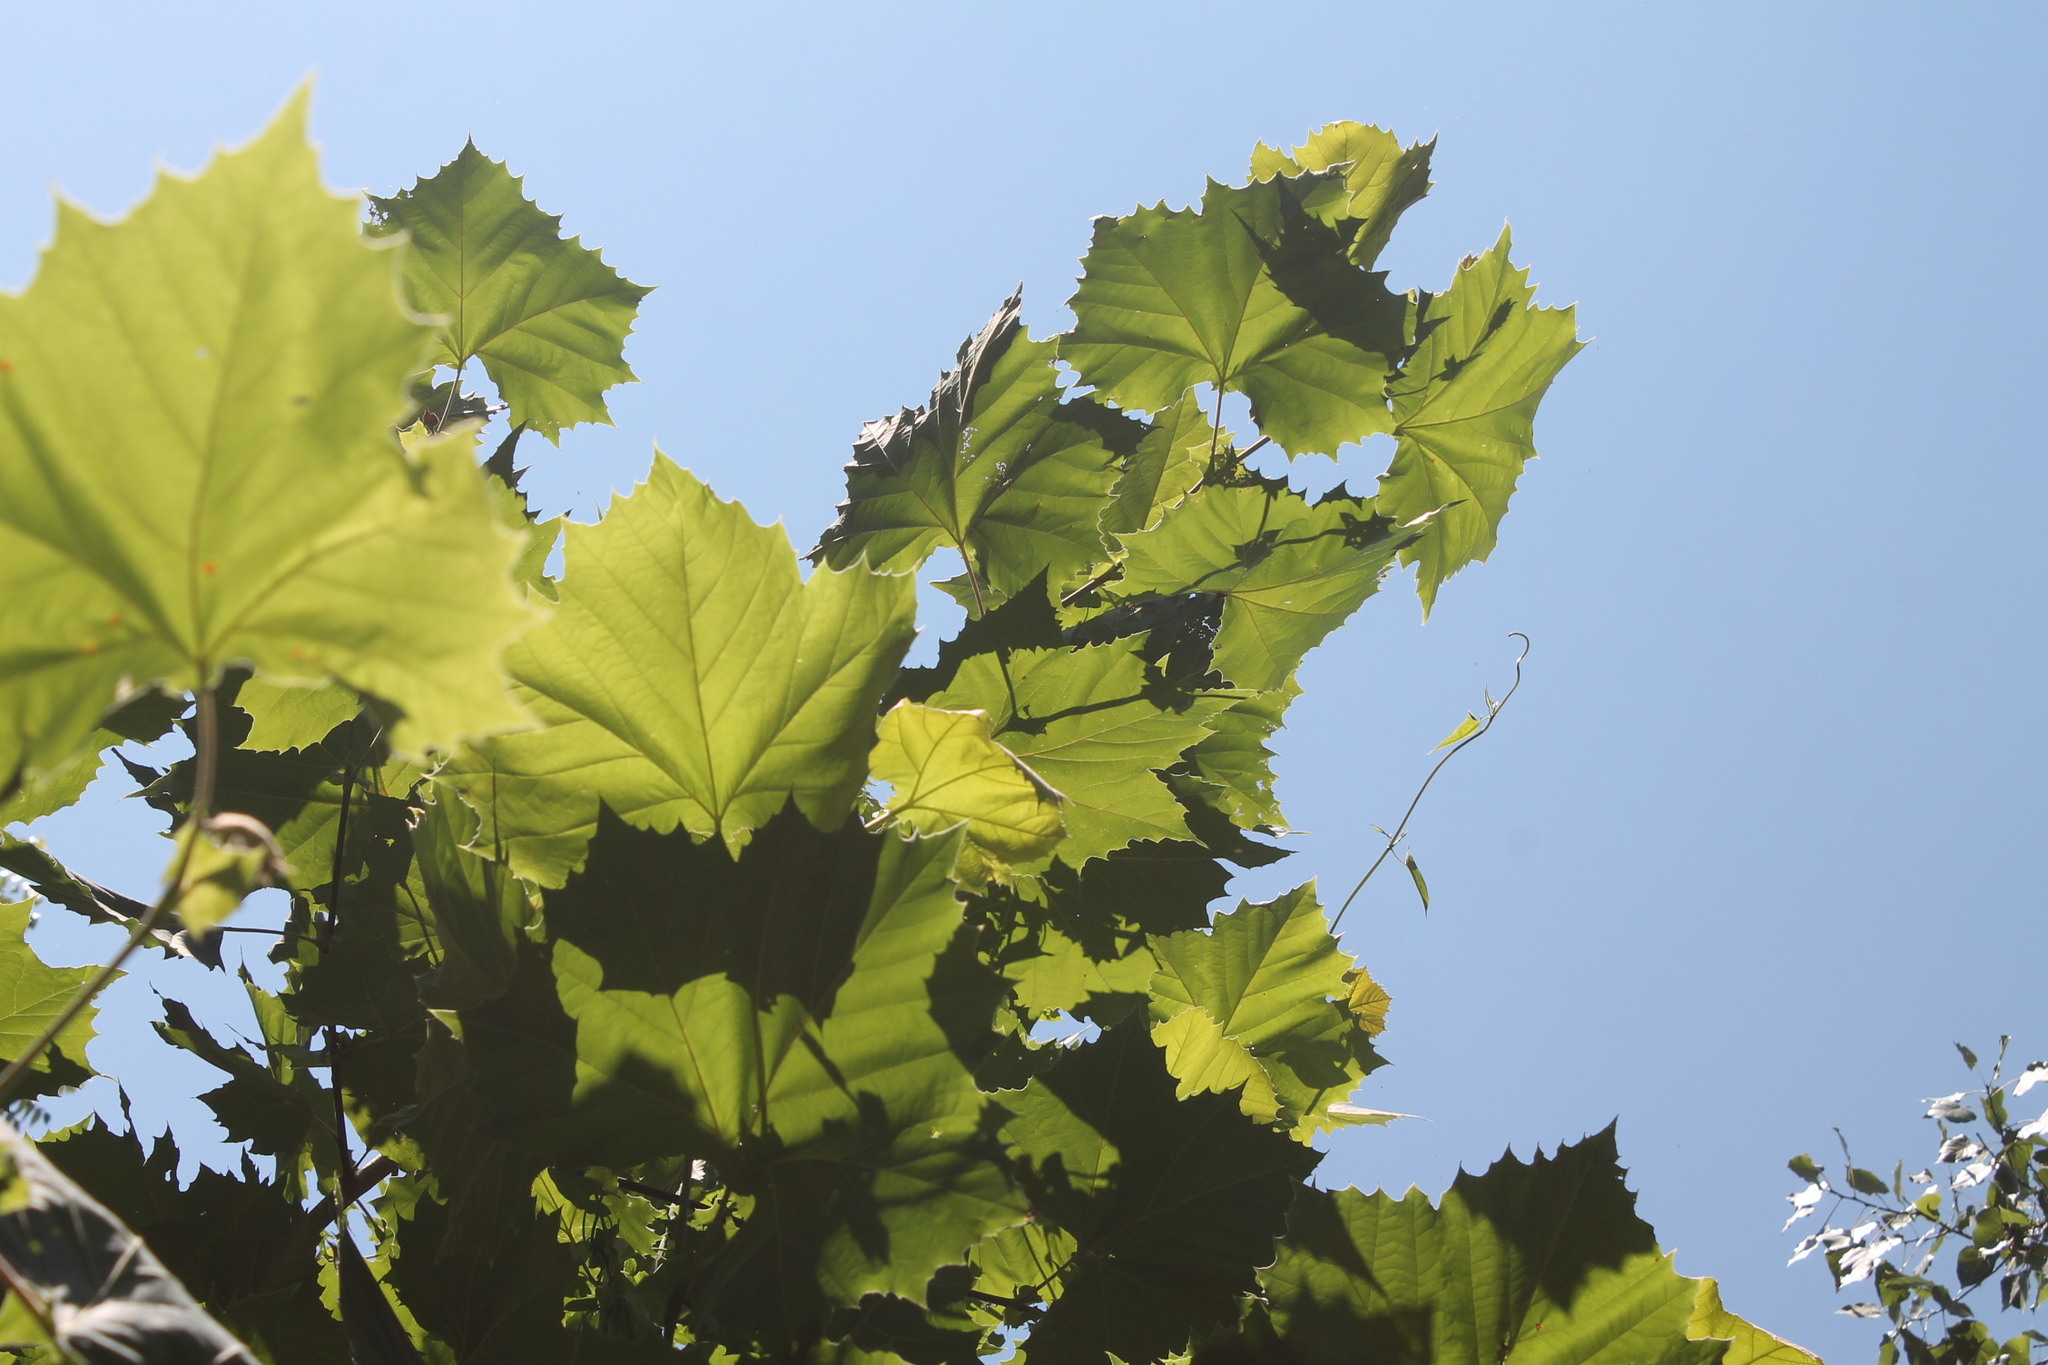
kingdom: Plantae
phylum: Tracheophyta
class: Magnoliopsida
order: Proteales
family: Platanaceae
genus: Platanus
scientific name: Platanus occidentalis
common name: American sycamore
